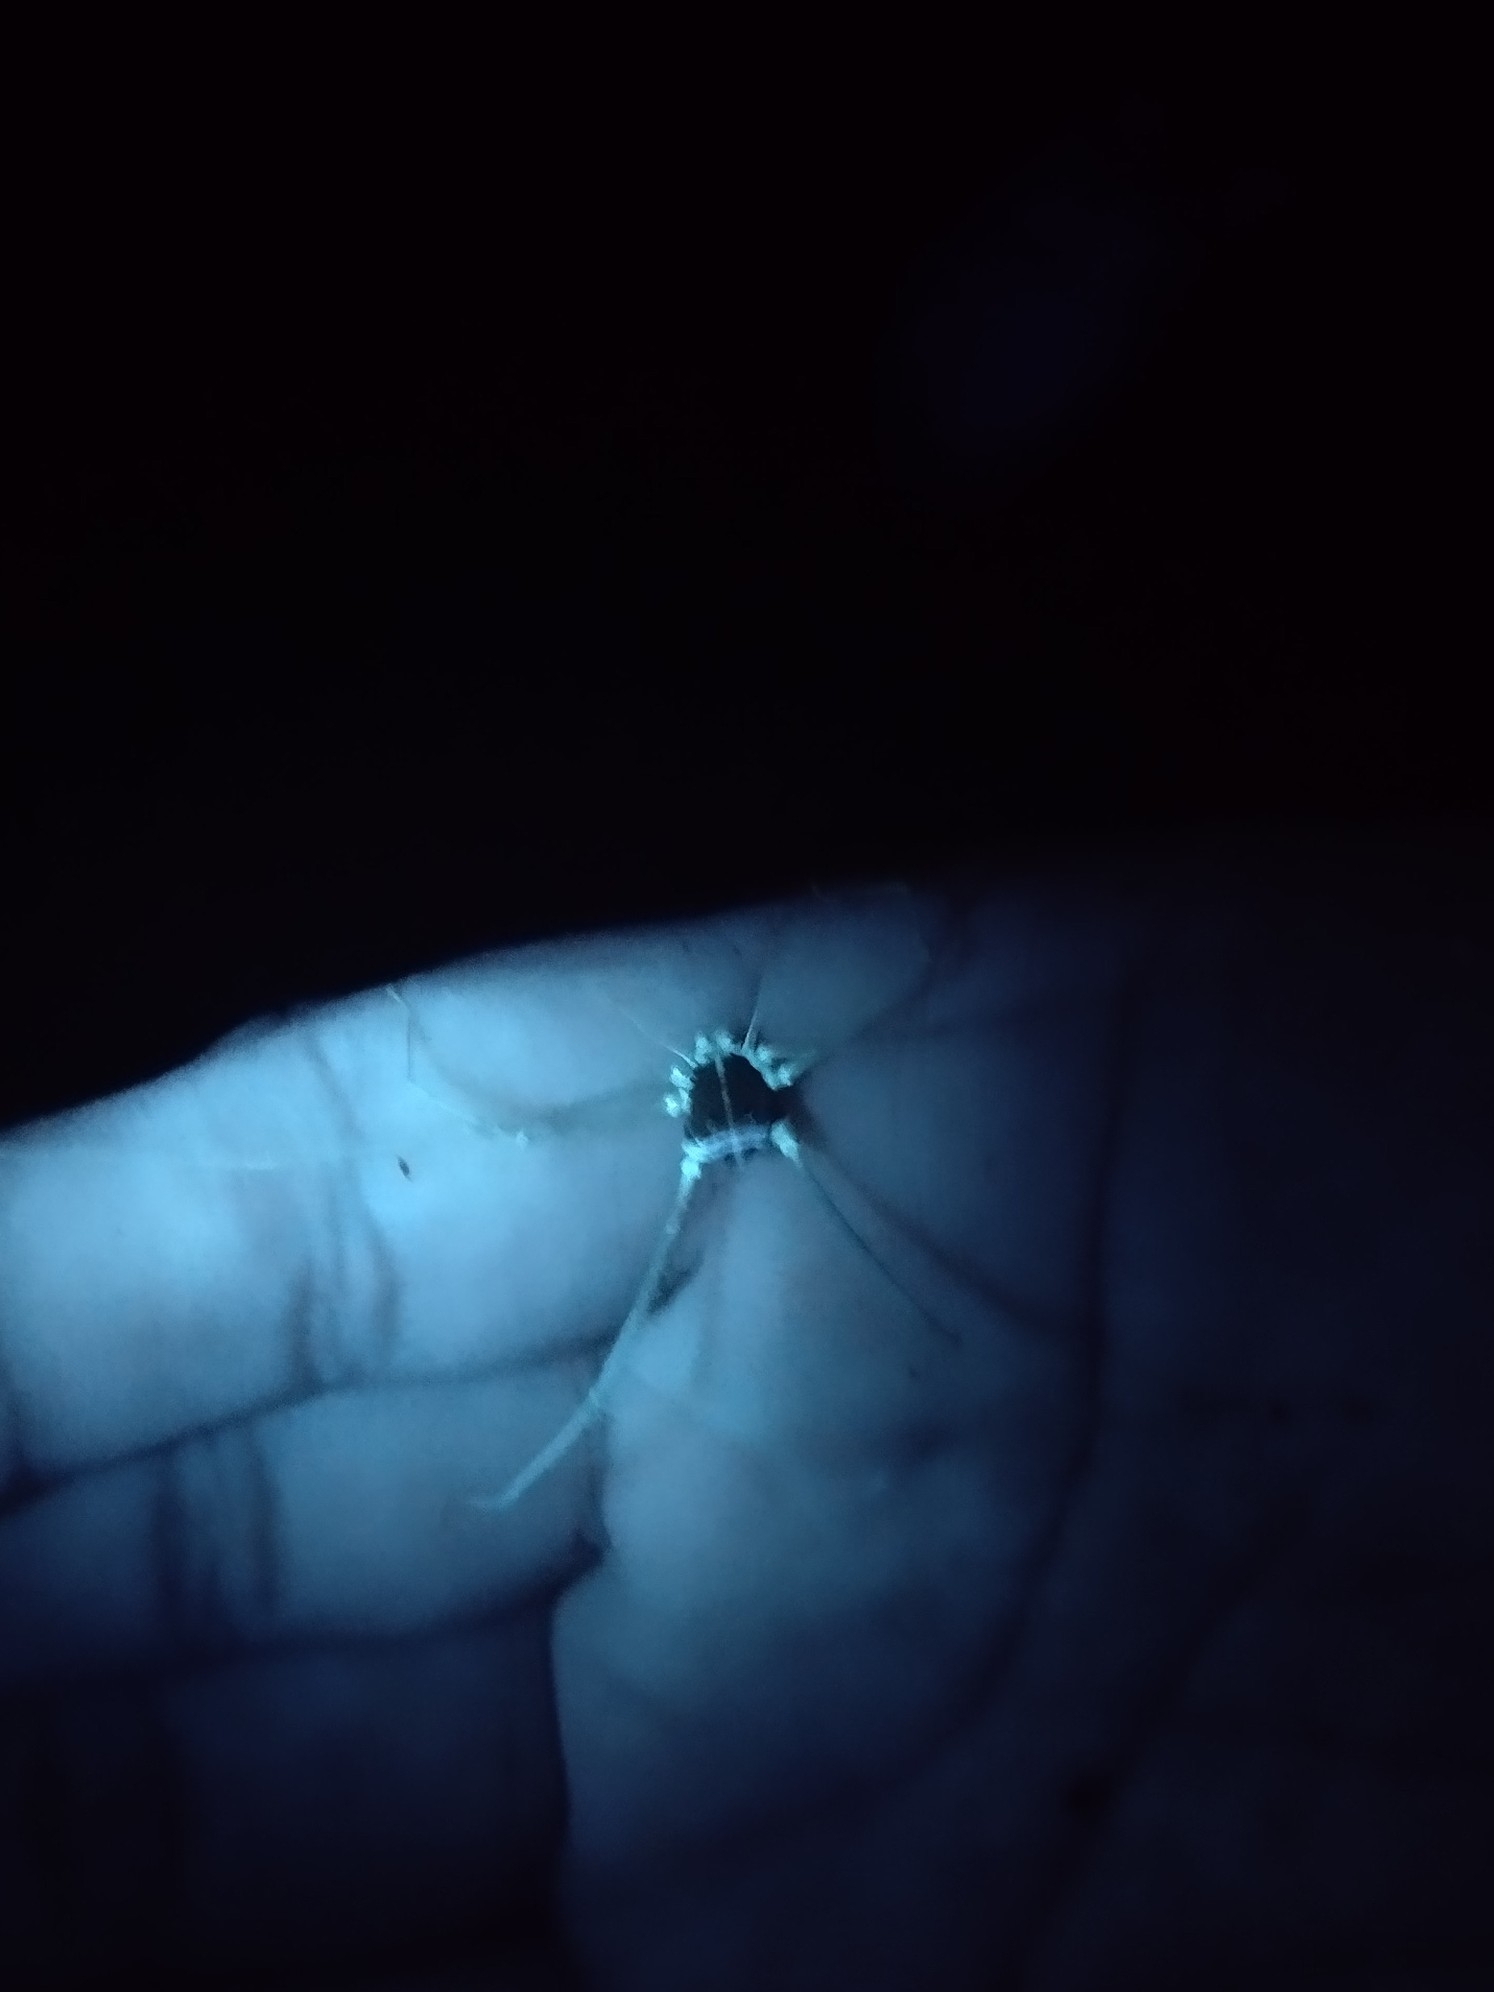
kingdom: Animalia
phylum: Arthropoda
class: Arachnida
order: Opiliones
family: Agoristenidae
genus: Yunquenus
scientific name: Yunquenus portoricanus
